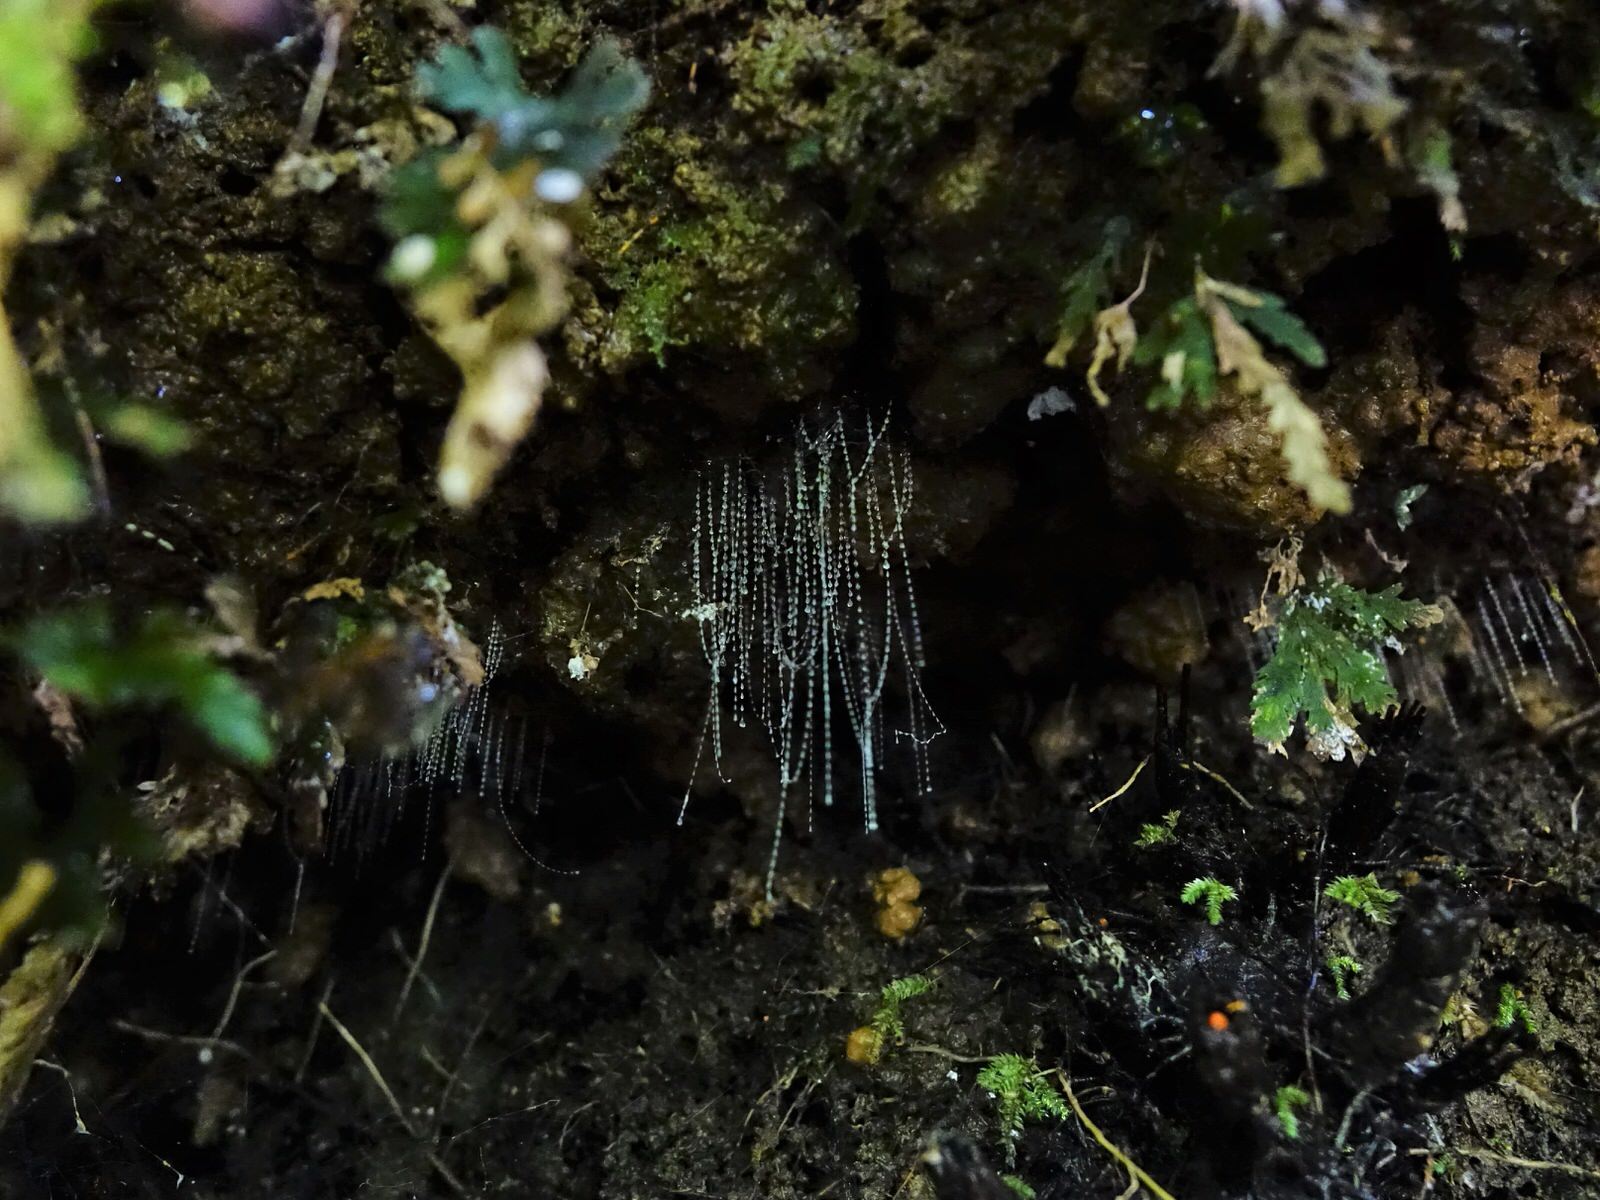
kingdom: Animalia
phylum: Arthropoda
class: Insecta
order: Diptera
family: Keroplatidae
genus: Arachnocampa
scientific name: Arachnocampa luminosa
